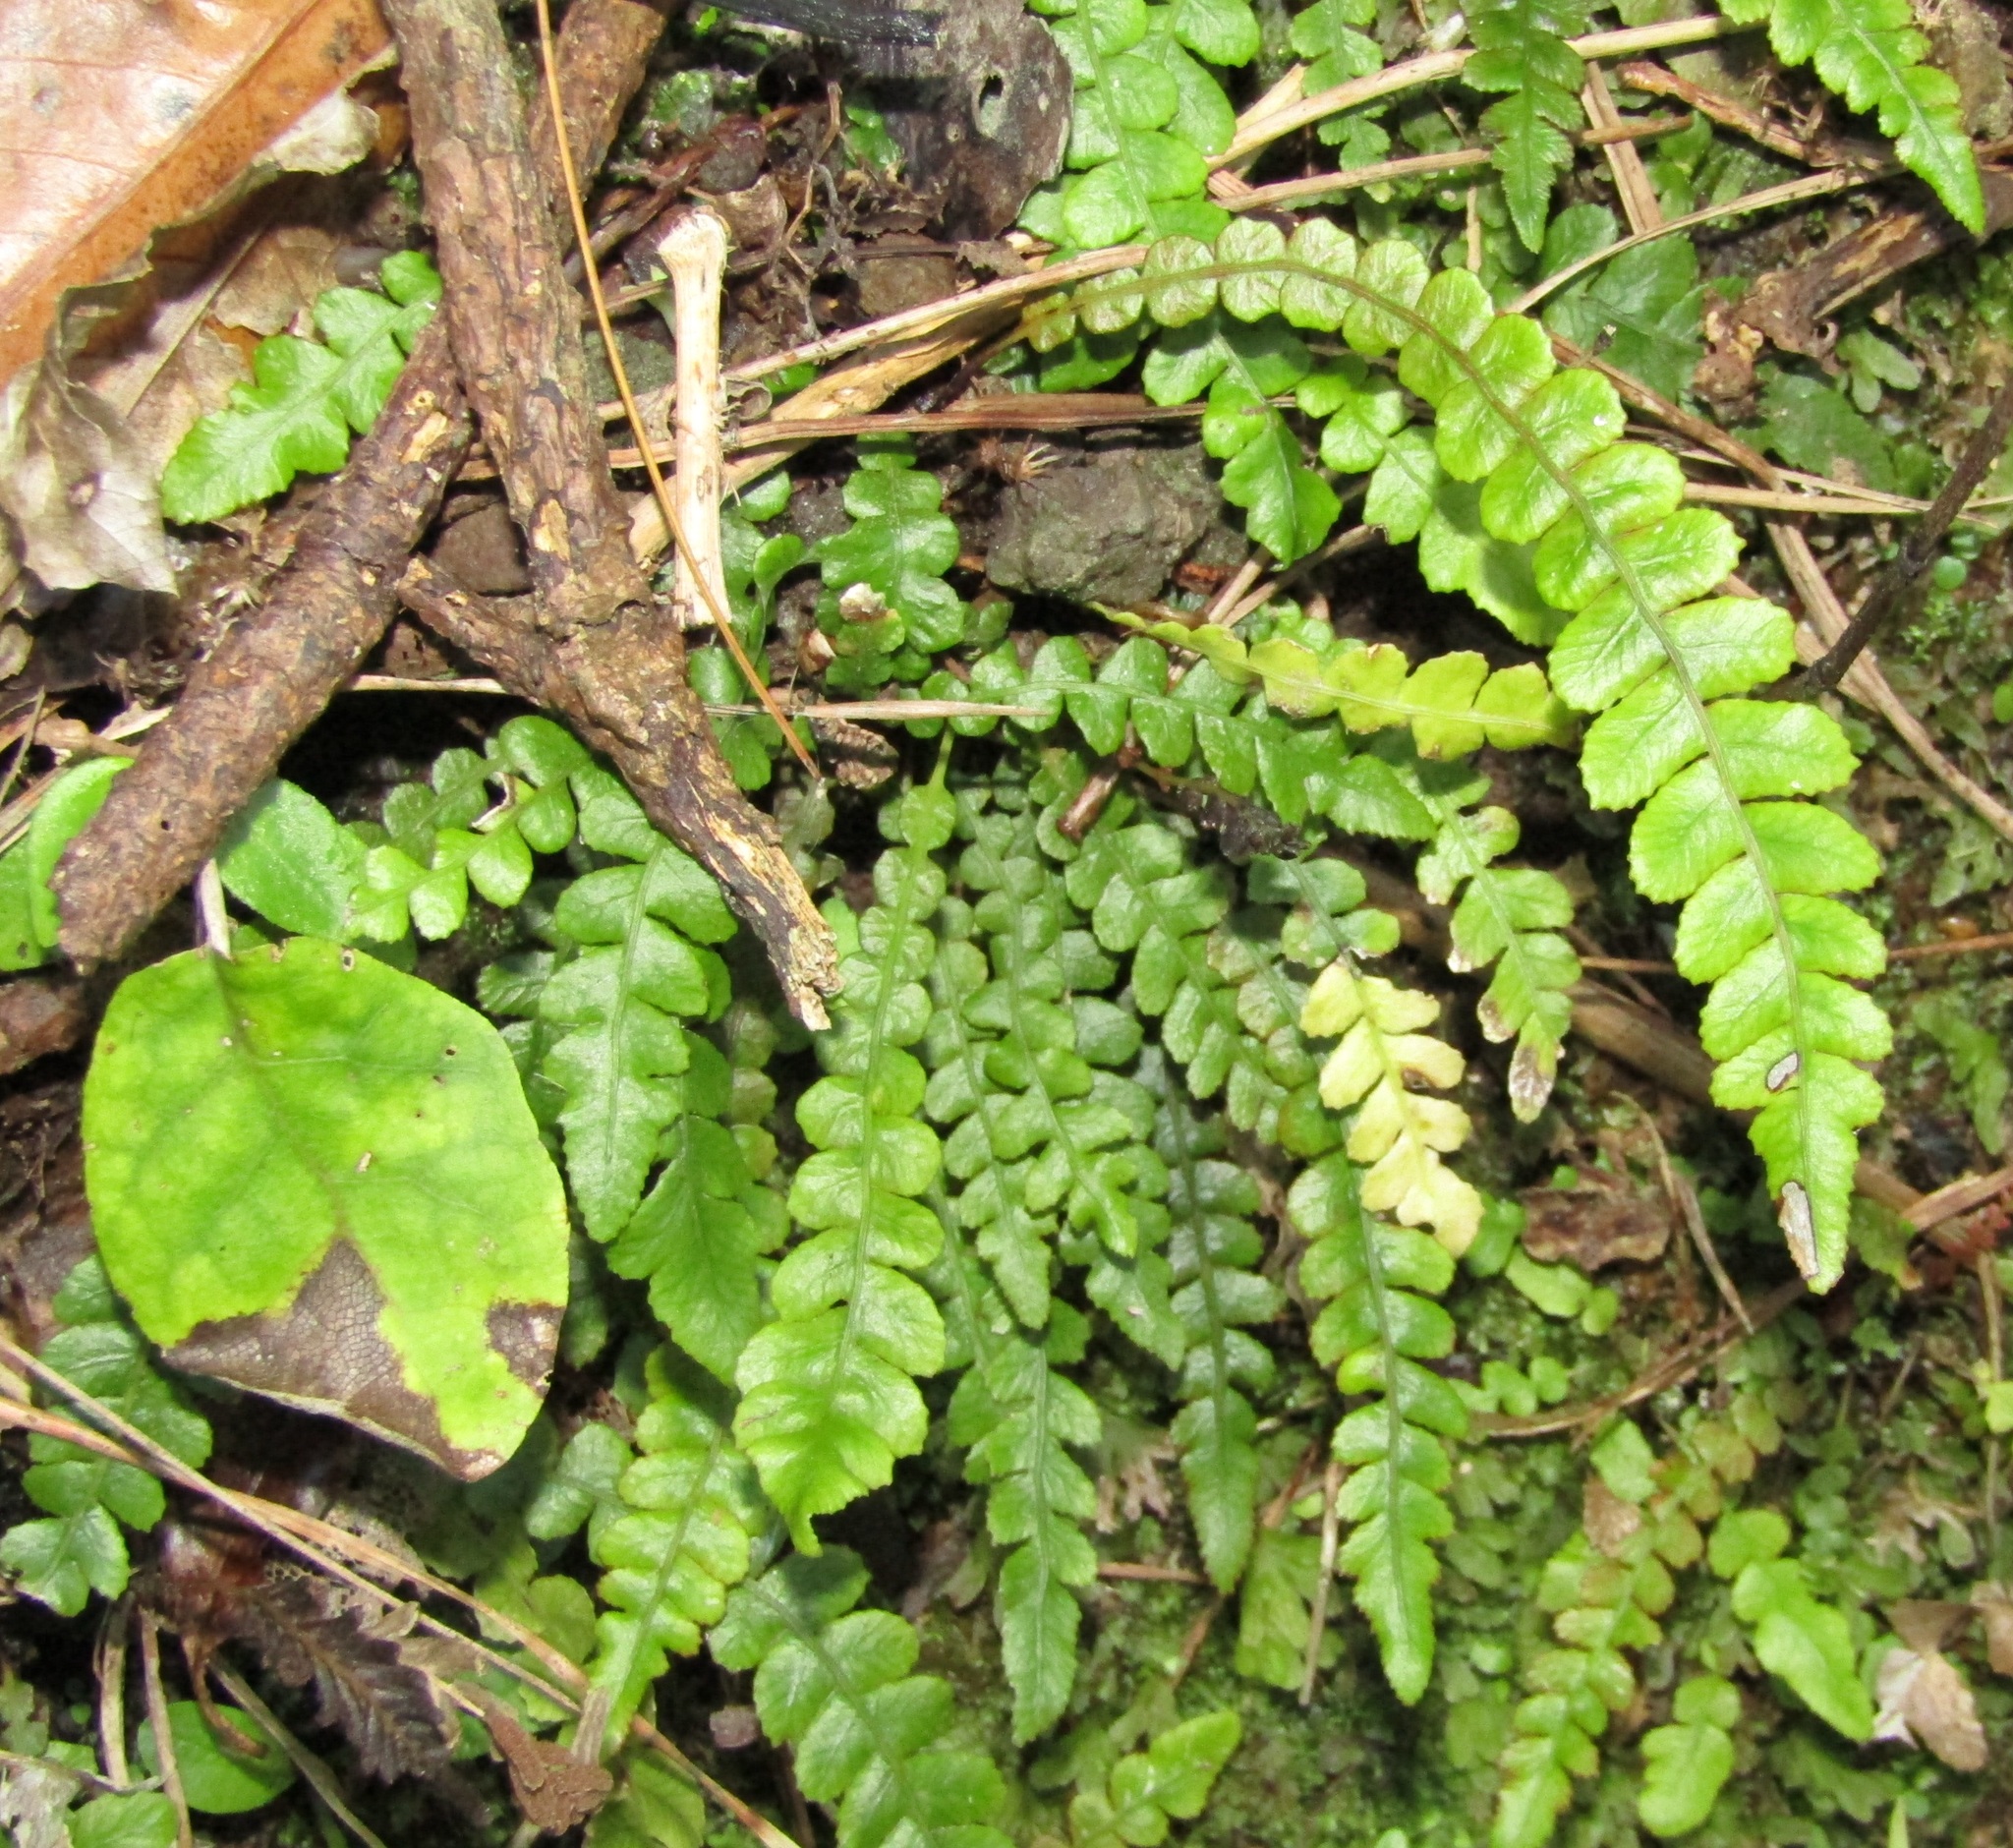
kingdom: Plantae
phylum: Tracheophyta
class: Polypodiopsida
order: Polypodiales
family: Blechnaceae
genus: Austroblechnum
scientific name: Austroblechnum membranaceum
